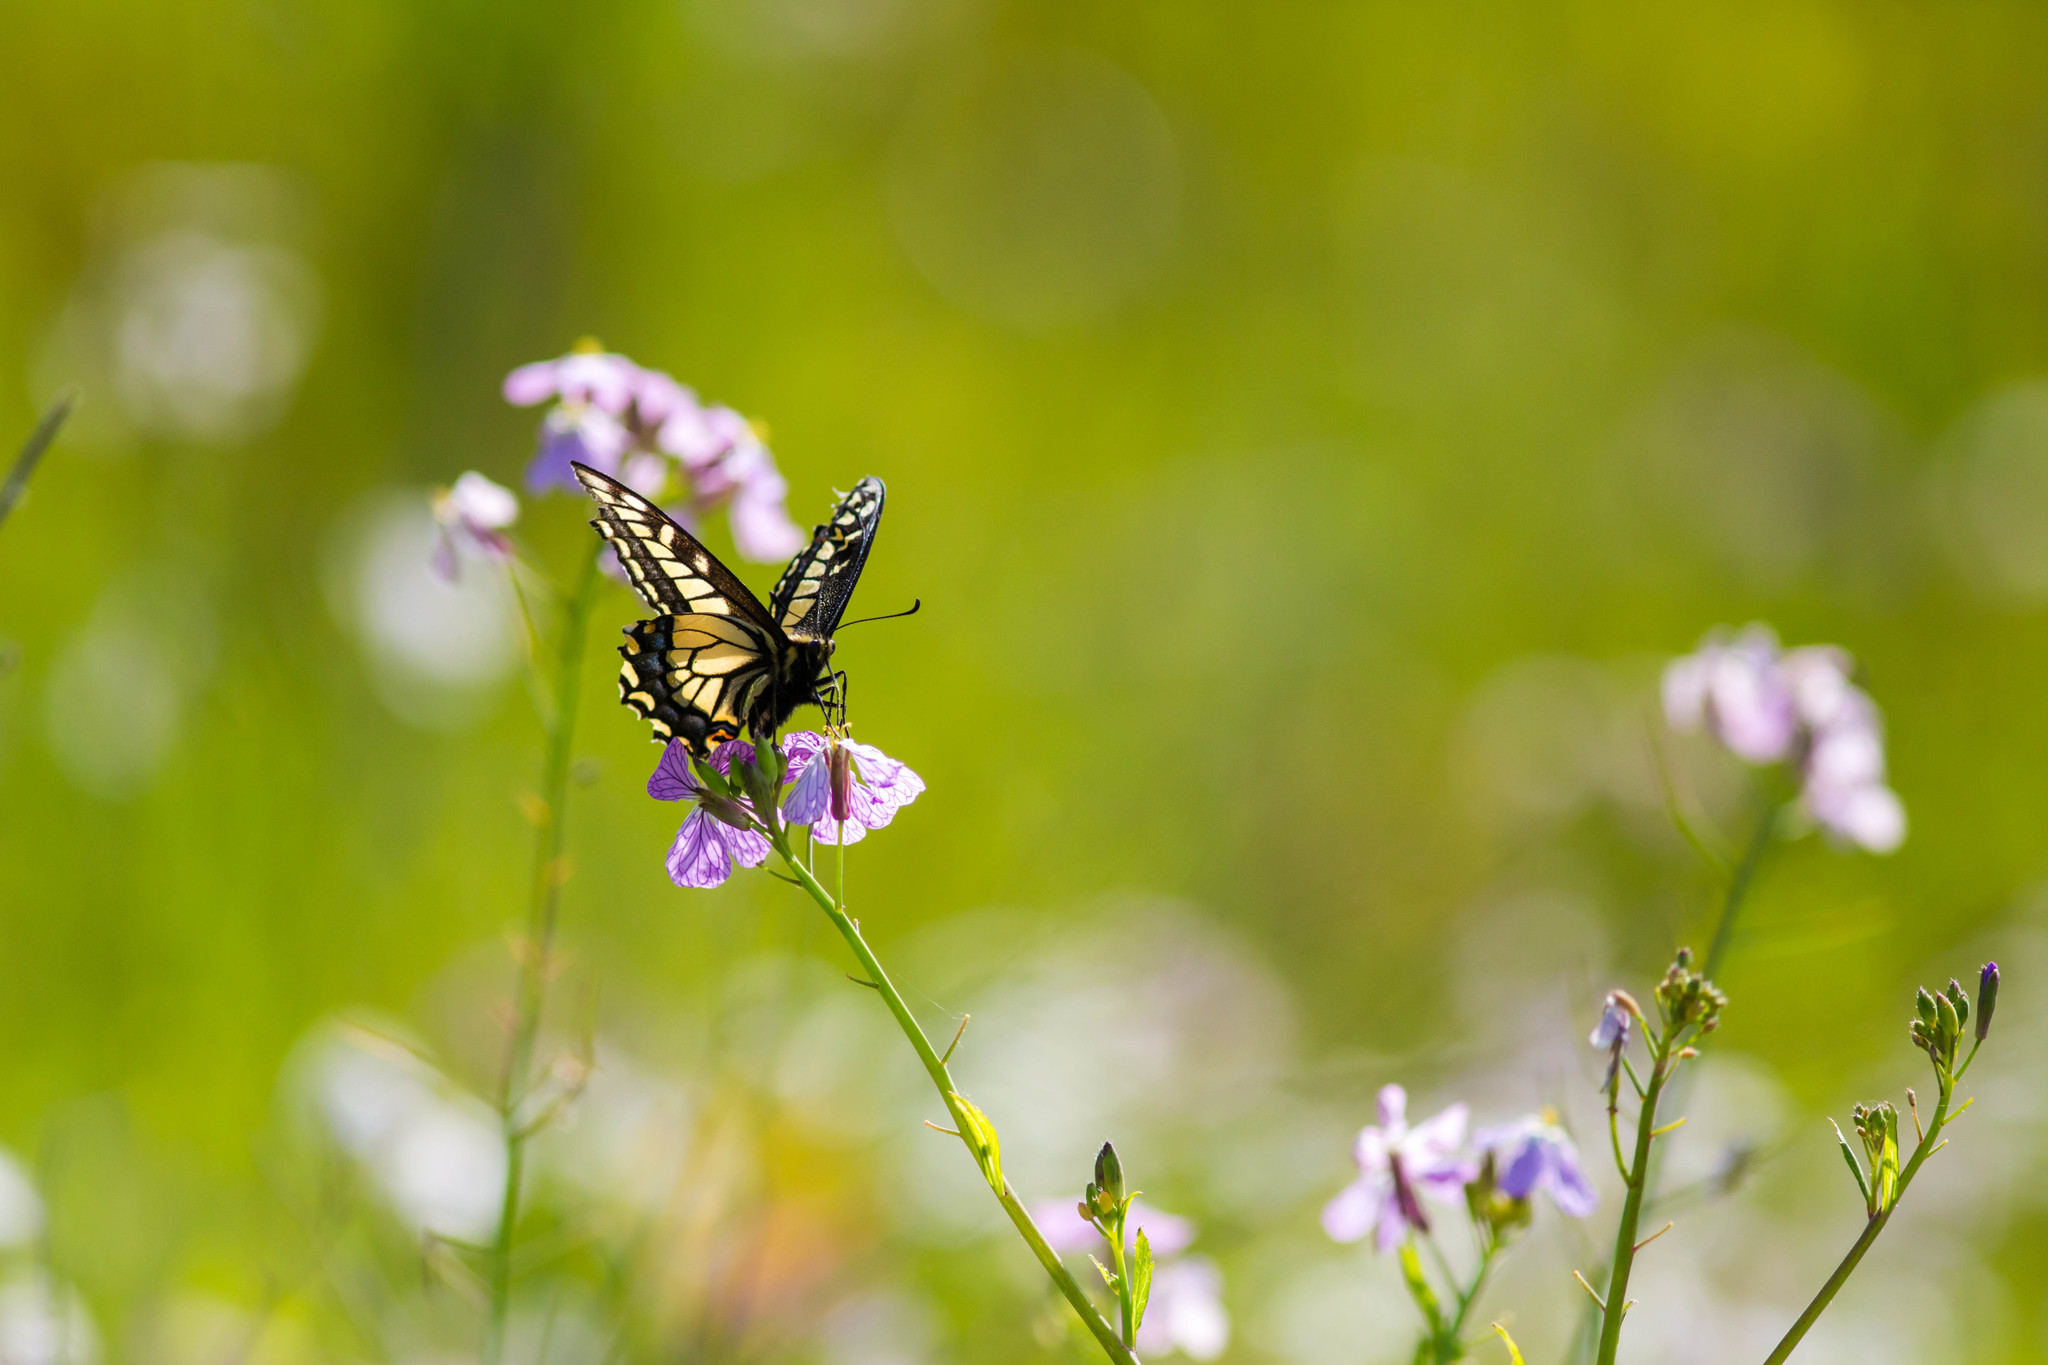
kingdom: Animalia
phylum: Arthropoda
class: Insecta
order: Lepidoptera
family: Papilionidae
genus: Papilio
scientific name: Papilio zelicaon
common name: Anise swallowtail
